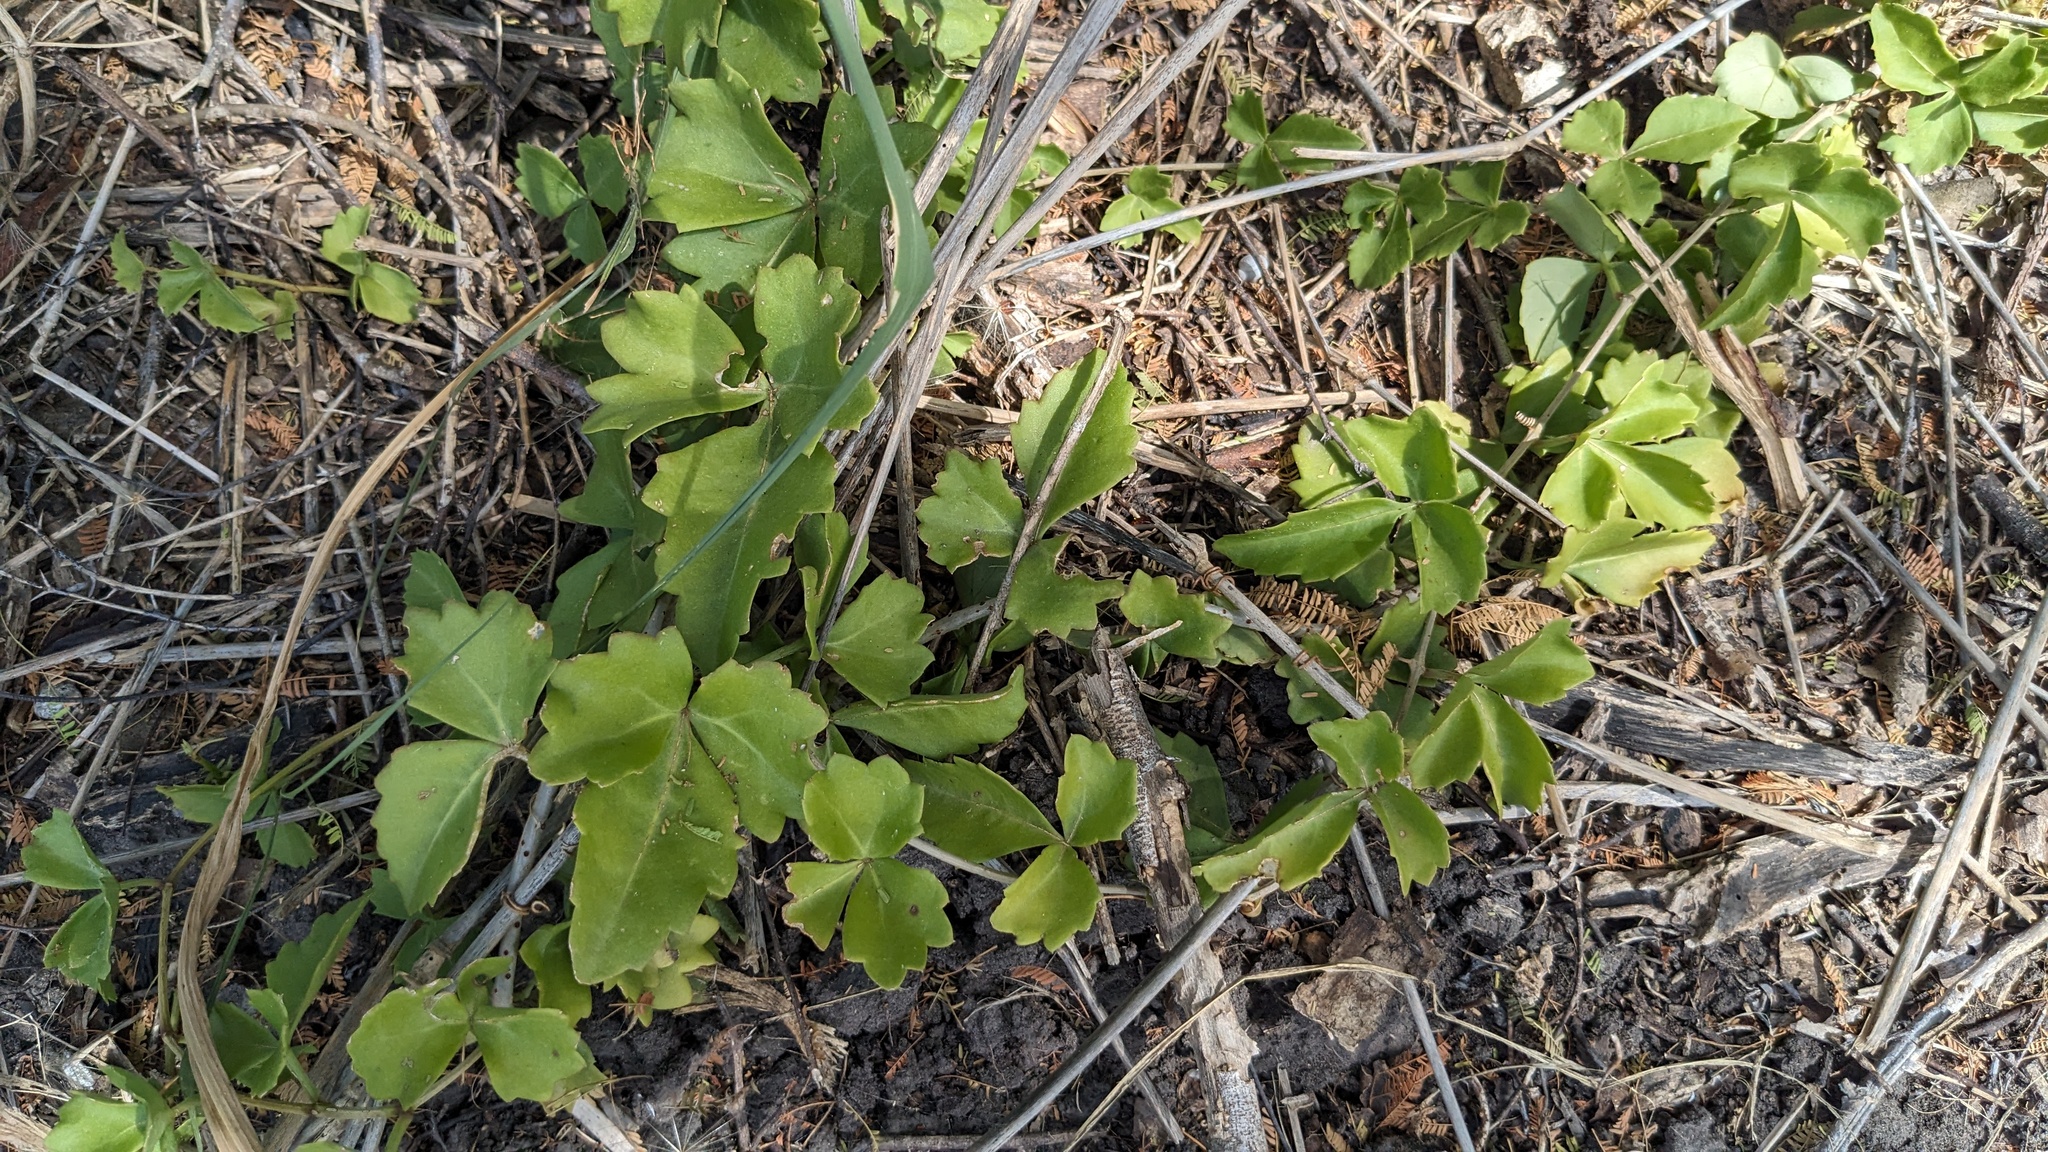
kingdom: Plantae
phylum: Tracheophyta
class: Magnoliopsida
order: Vitales
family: Vitaceae
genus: Cissus
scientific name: Cissus trifoliata
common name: Vine-sorrel
